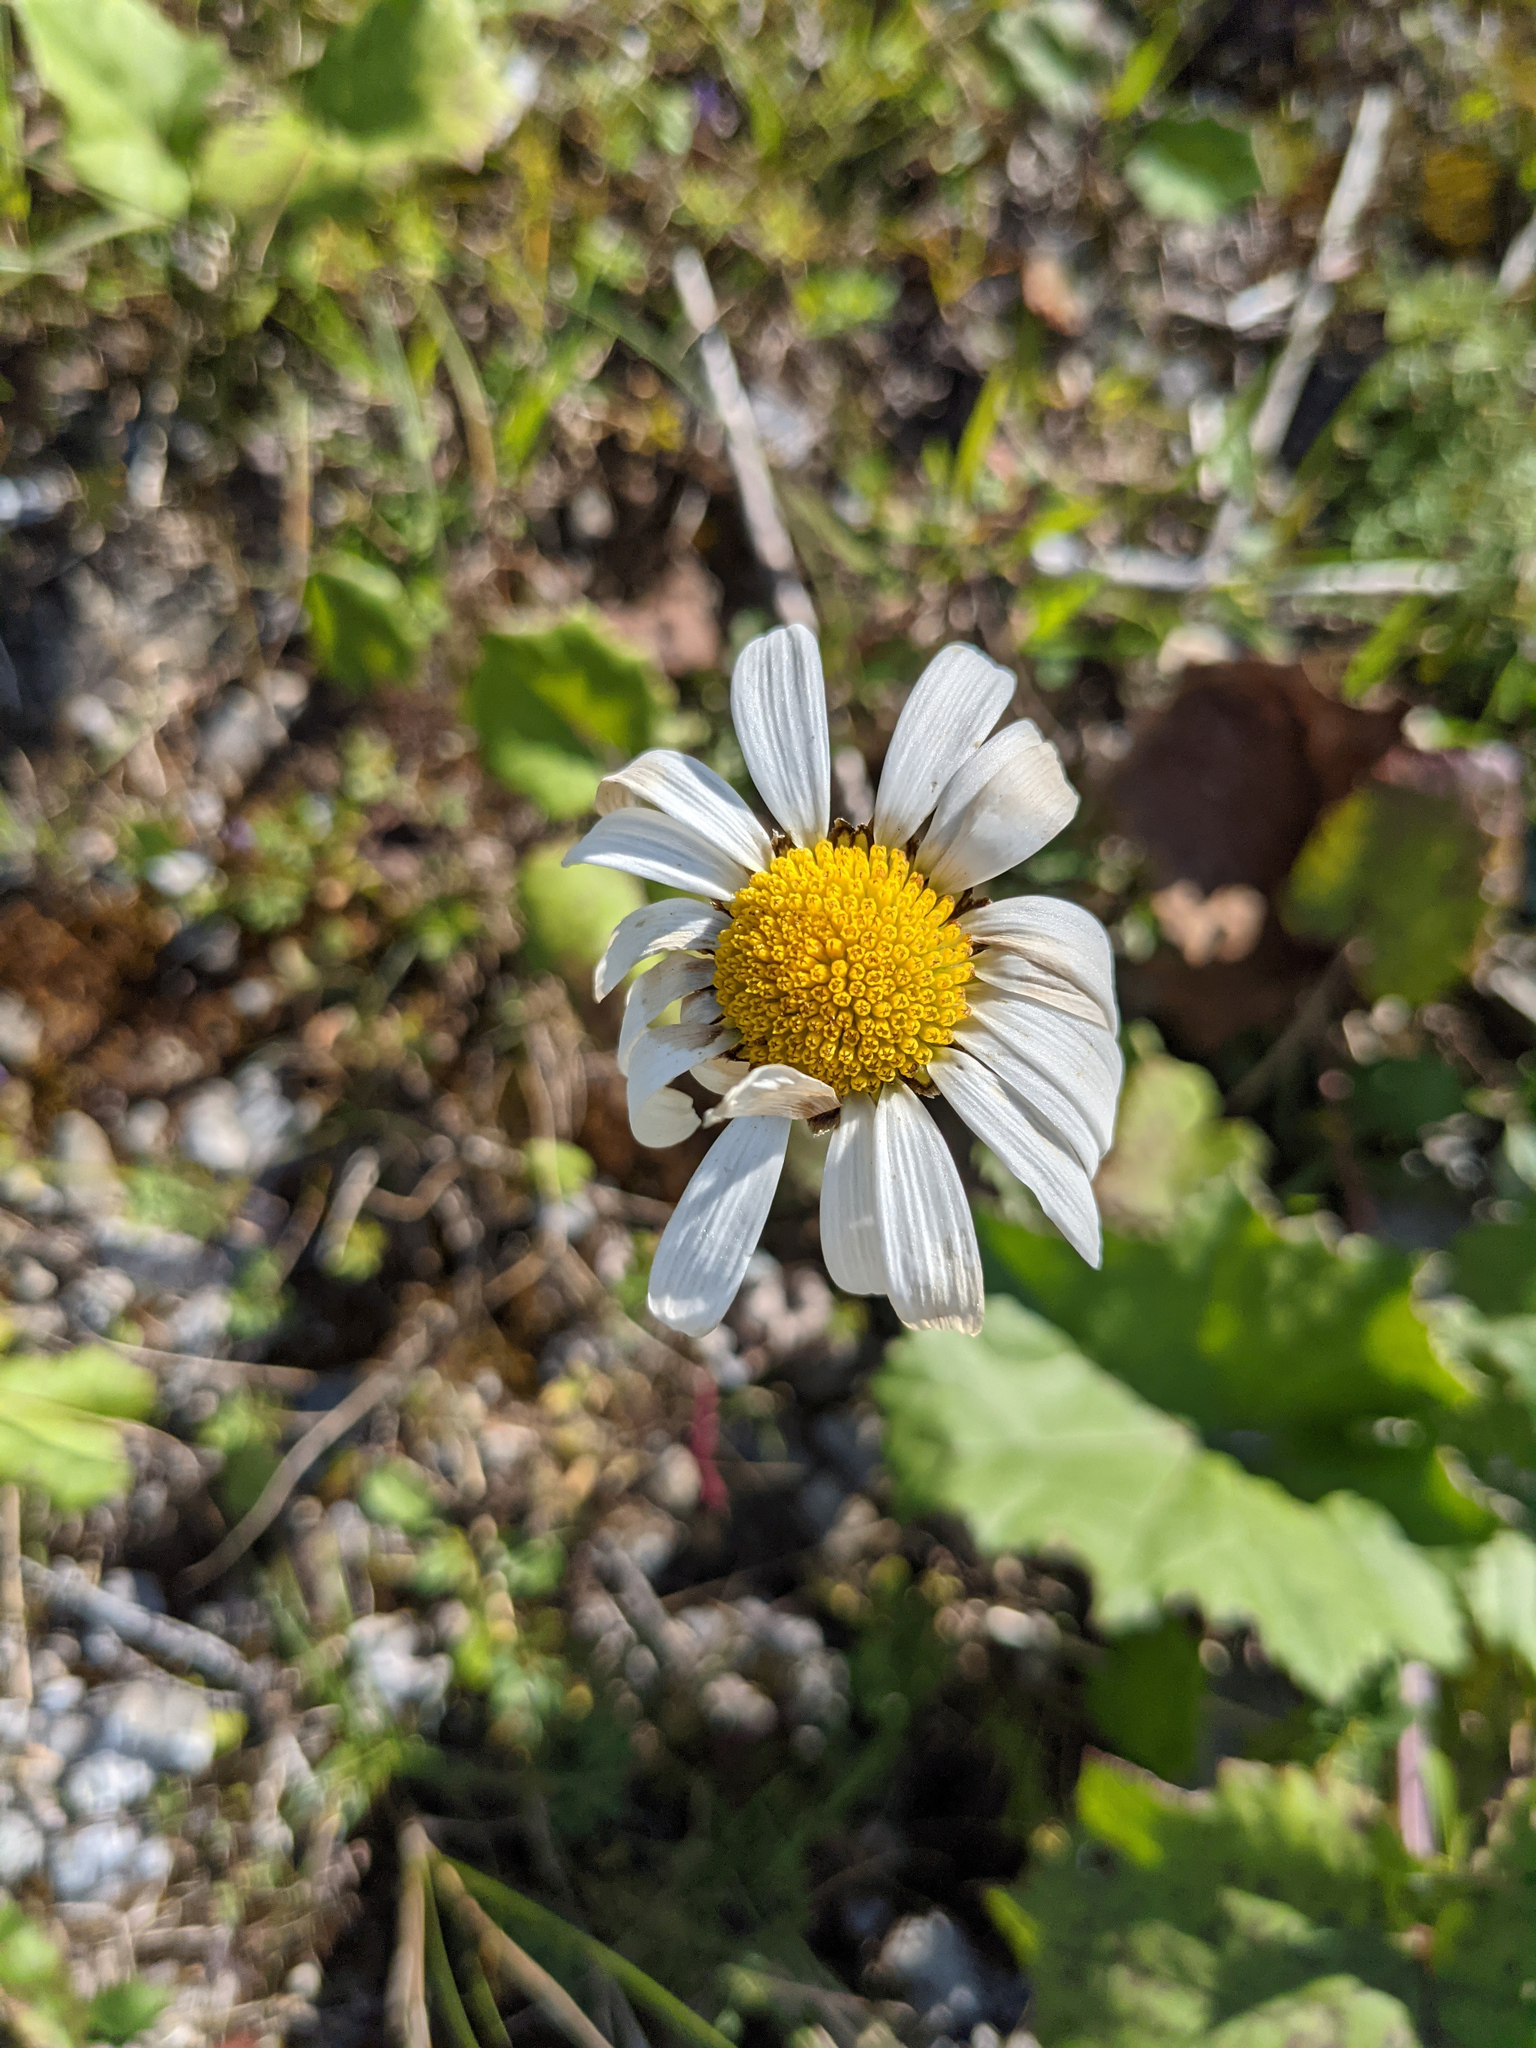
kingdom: Plantae
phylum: Tracheophyta
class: Magnoliopsida
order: Asterales
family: Asteraceae
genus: Leucanthemum
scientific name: Leucanthemum vulgare
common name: Oxeye daisy
